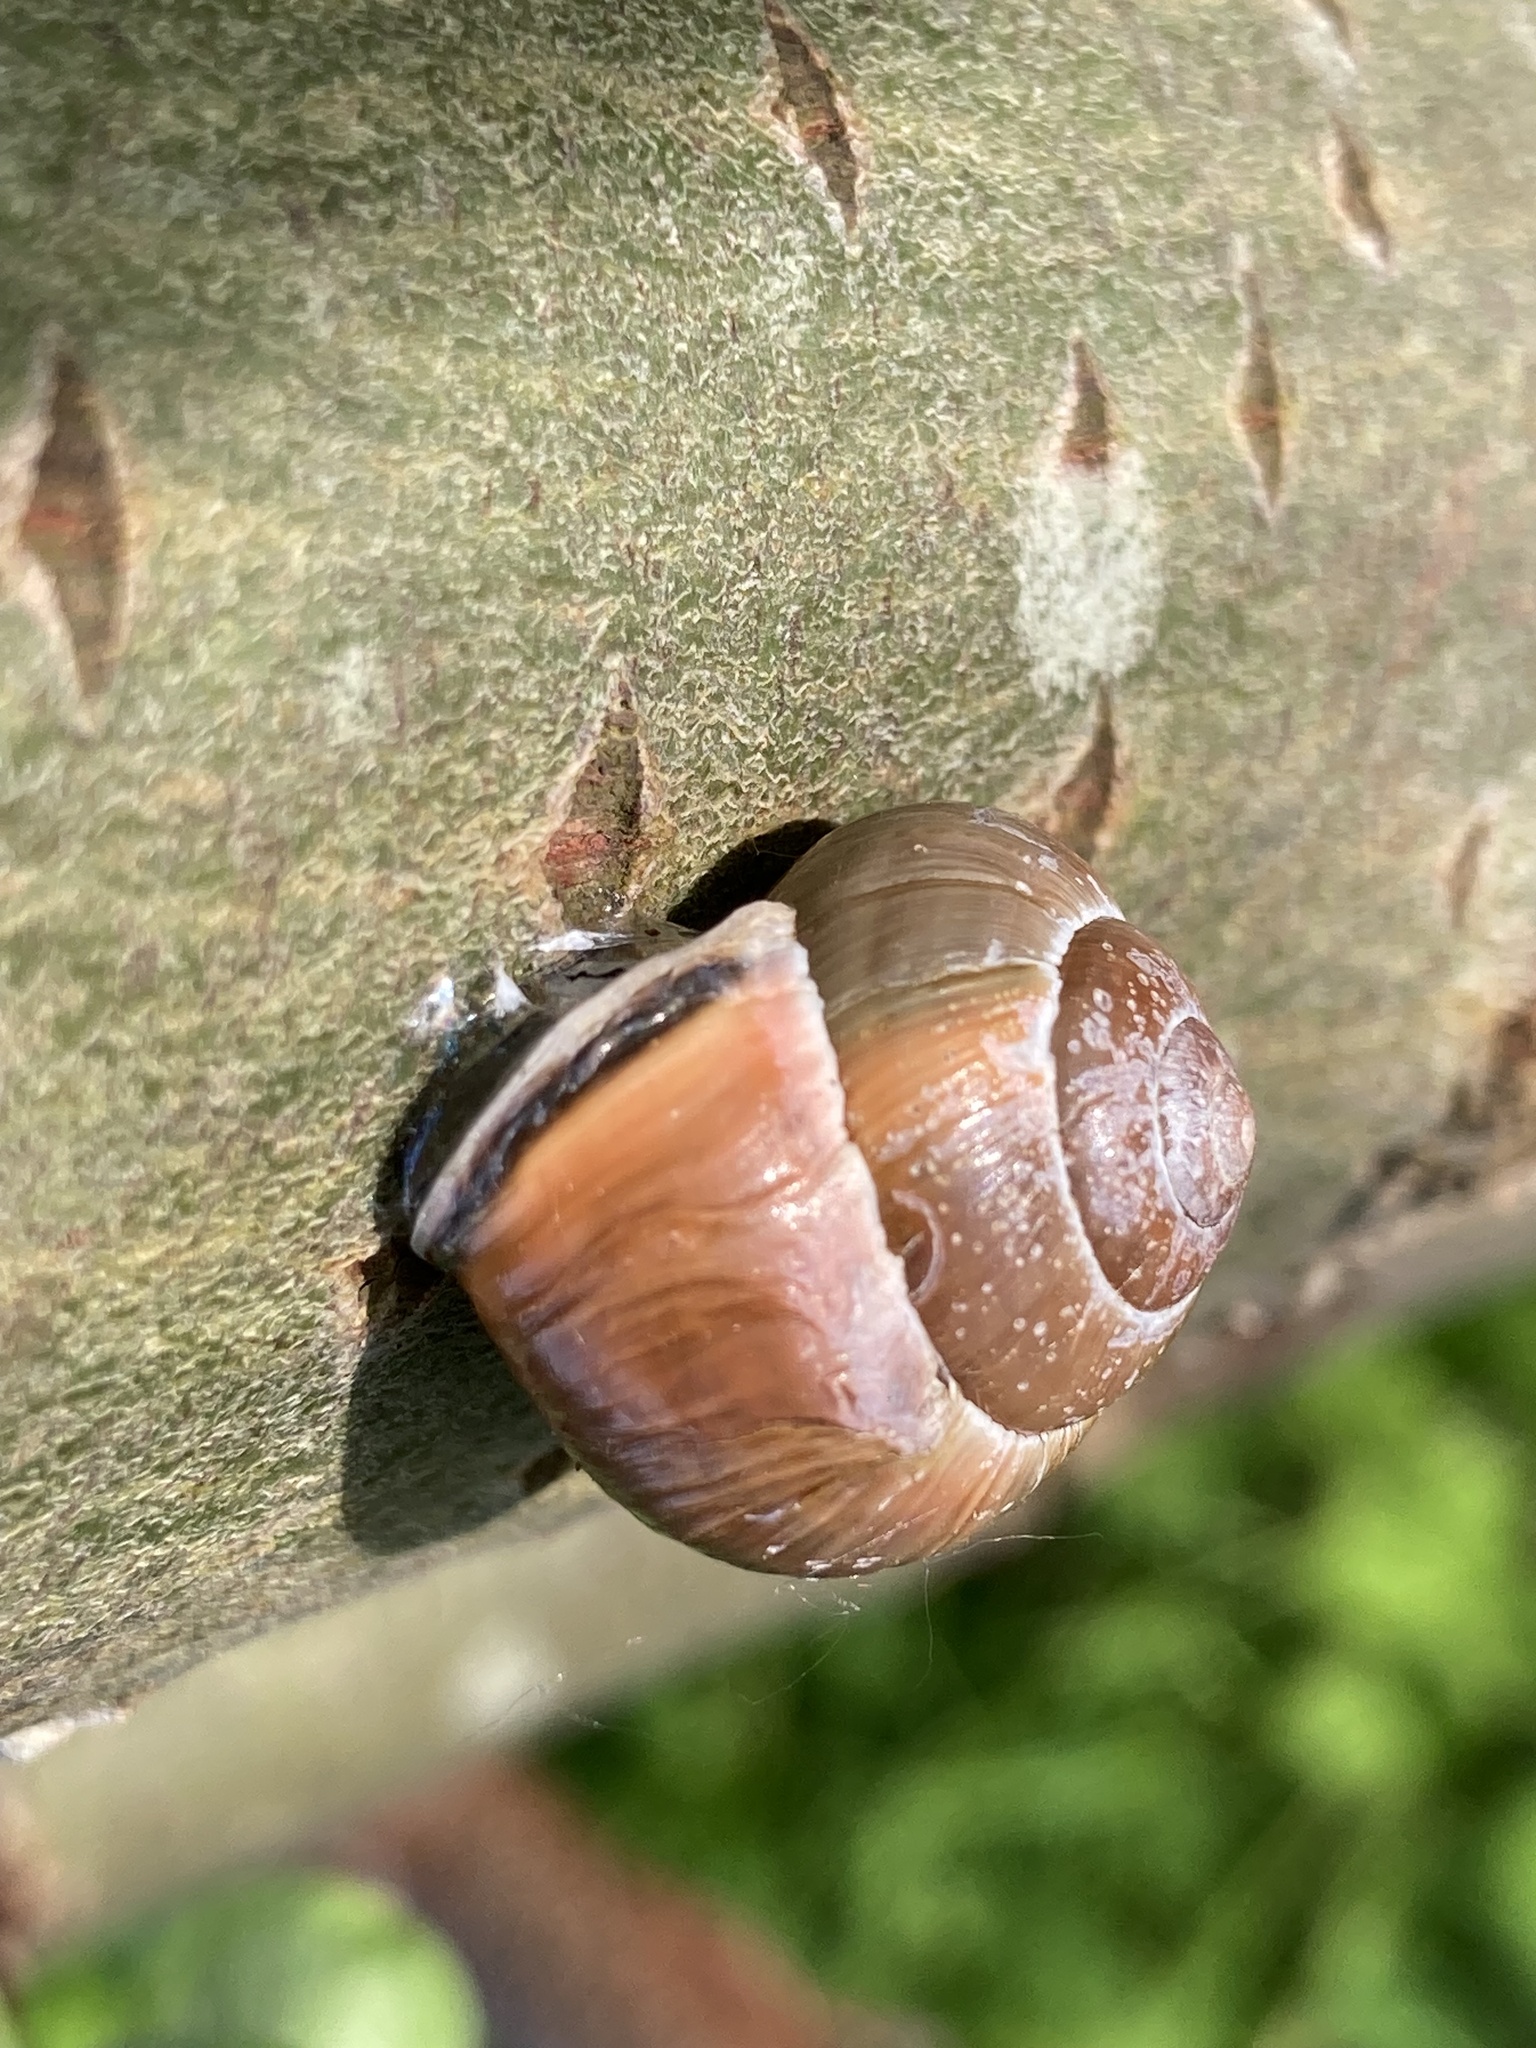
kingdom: Animalia
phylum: Mollusca
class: Gastropoda
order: Stylommatophora
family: Helicidae
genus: Cepaea
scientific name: Cepaea nemoralis
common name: Grovesnail
